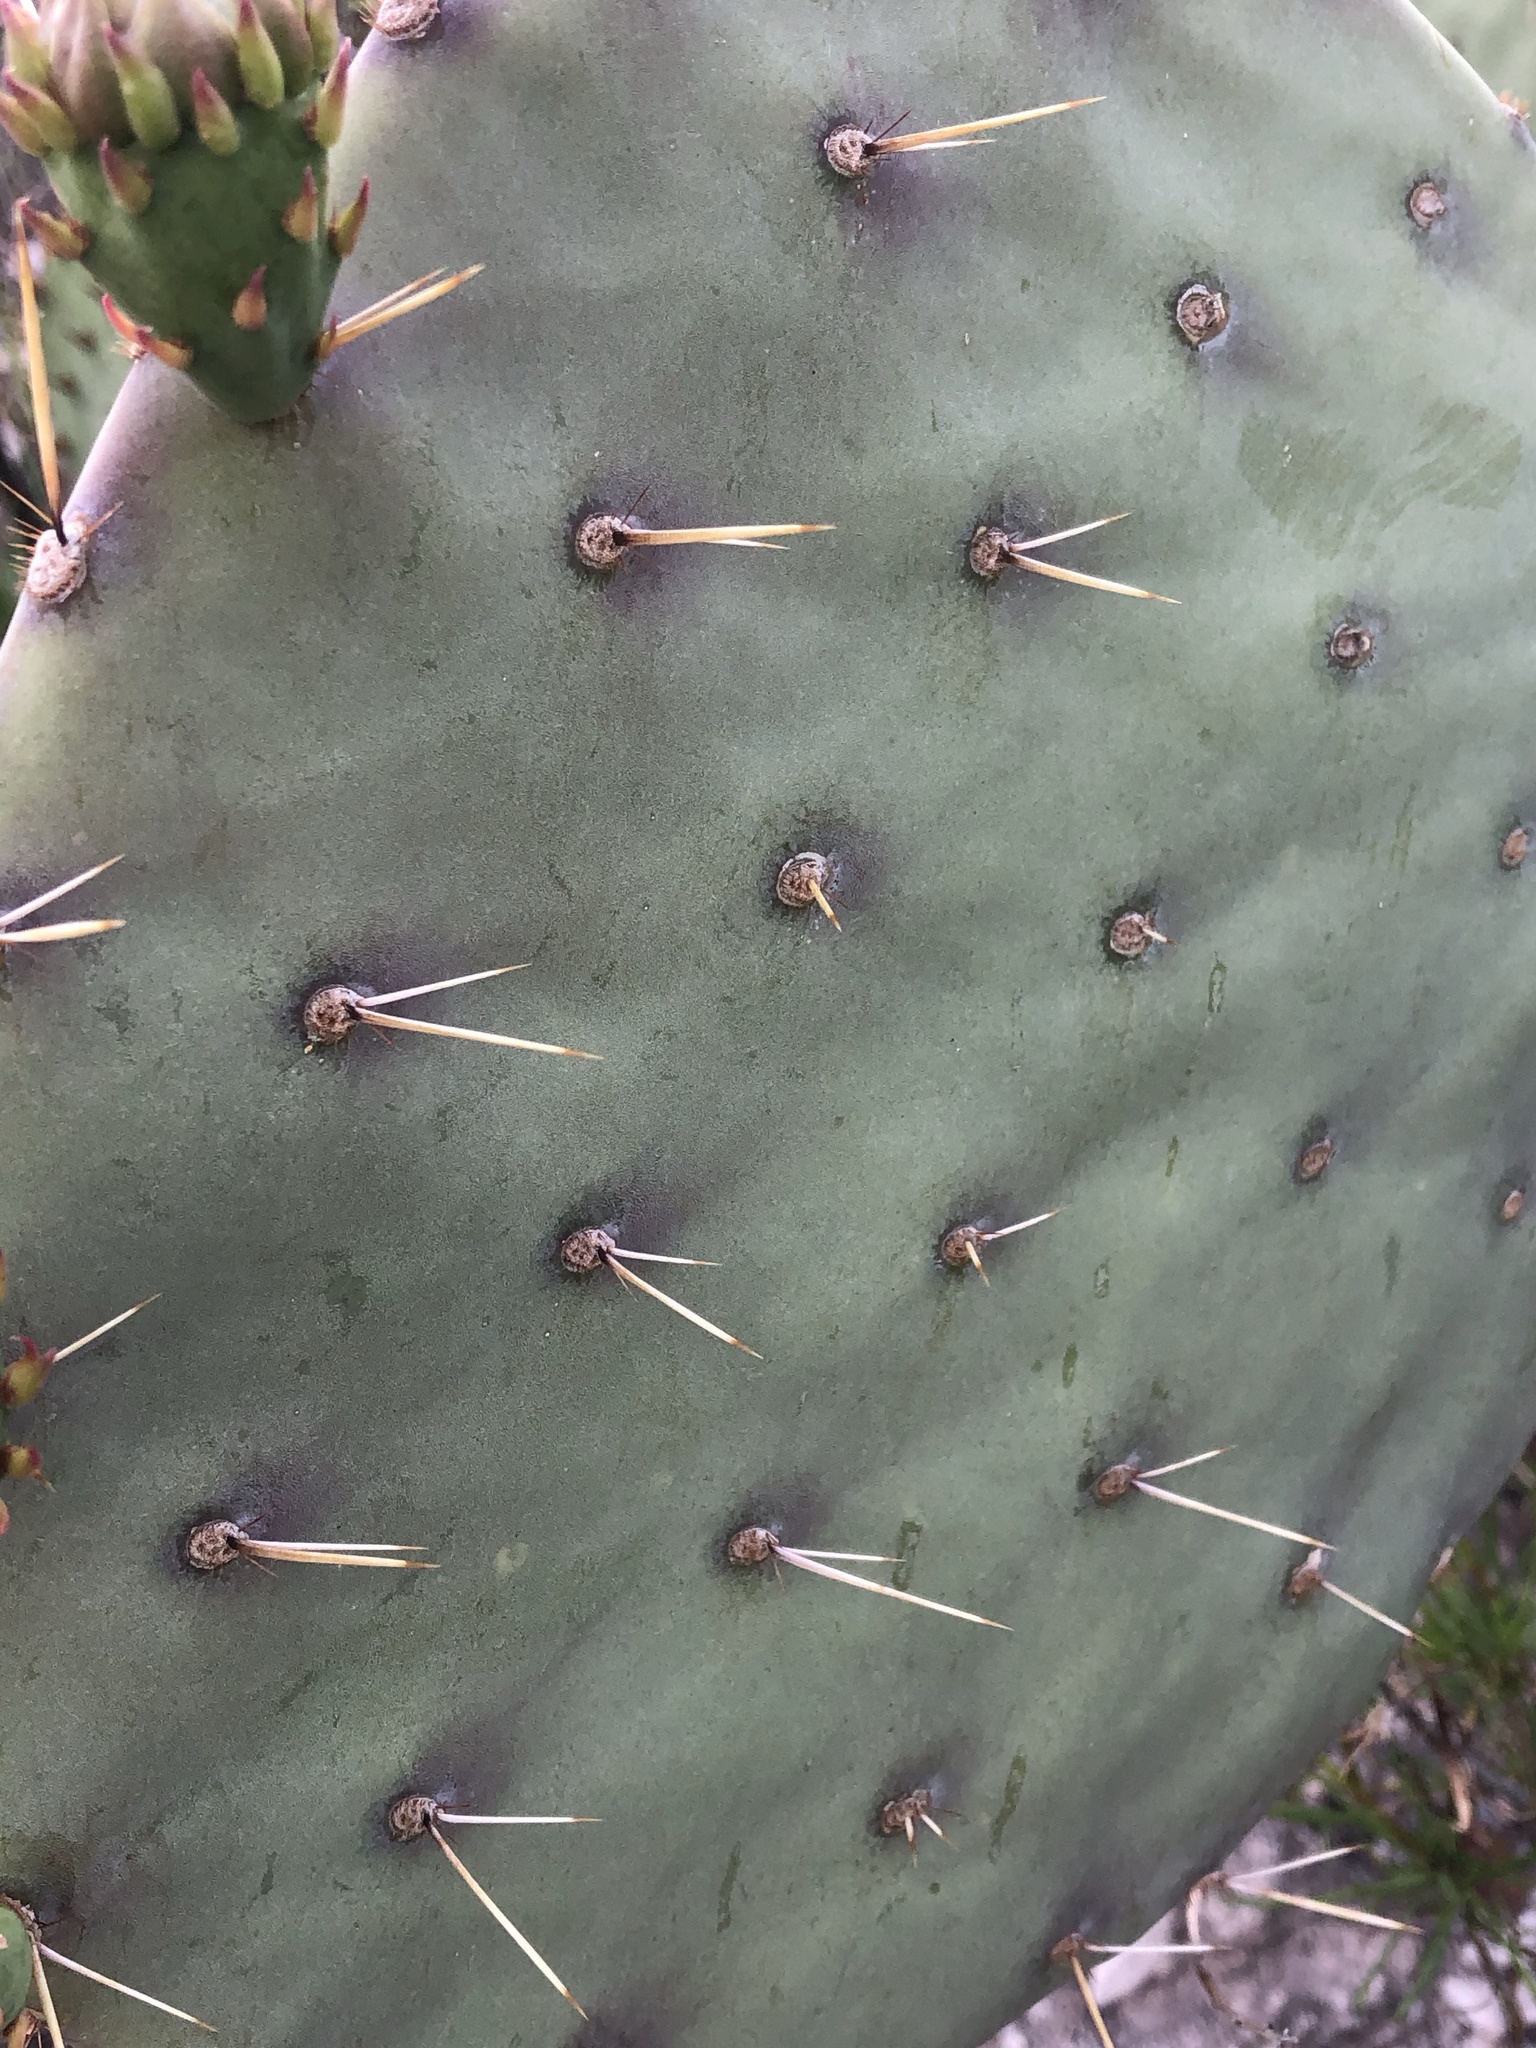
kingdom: Plantae
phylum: Tracheophyta
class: Magnoliopsida
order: Caryophyllales
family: Cactaceae
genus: Opuntia
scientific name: Opuntia engelmannii
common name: Cactus-apple
